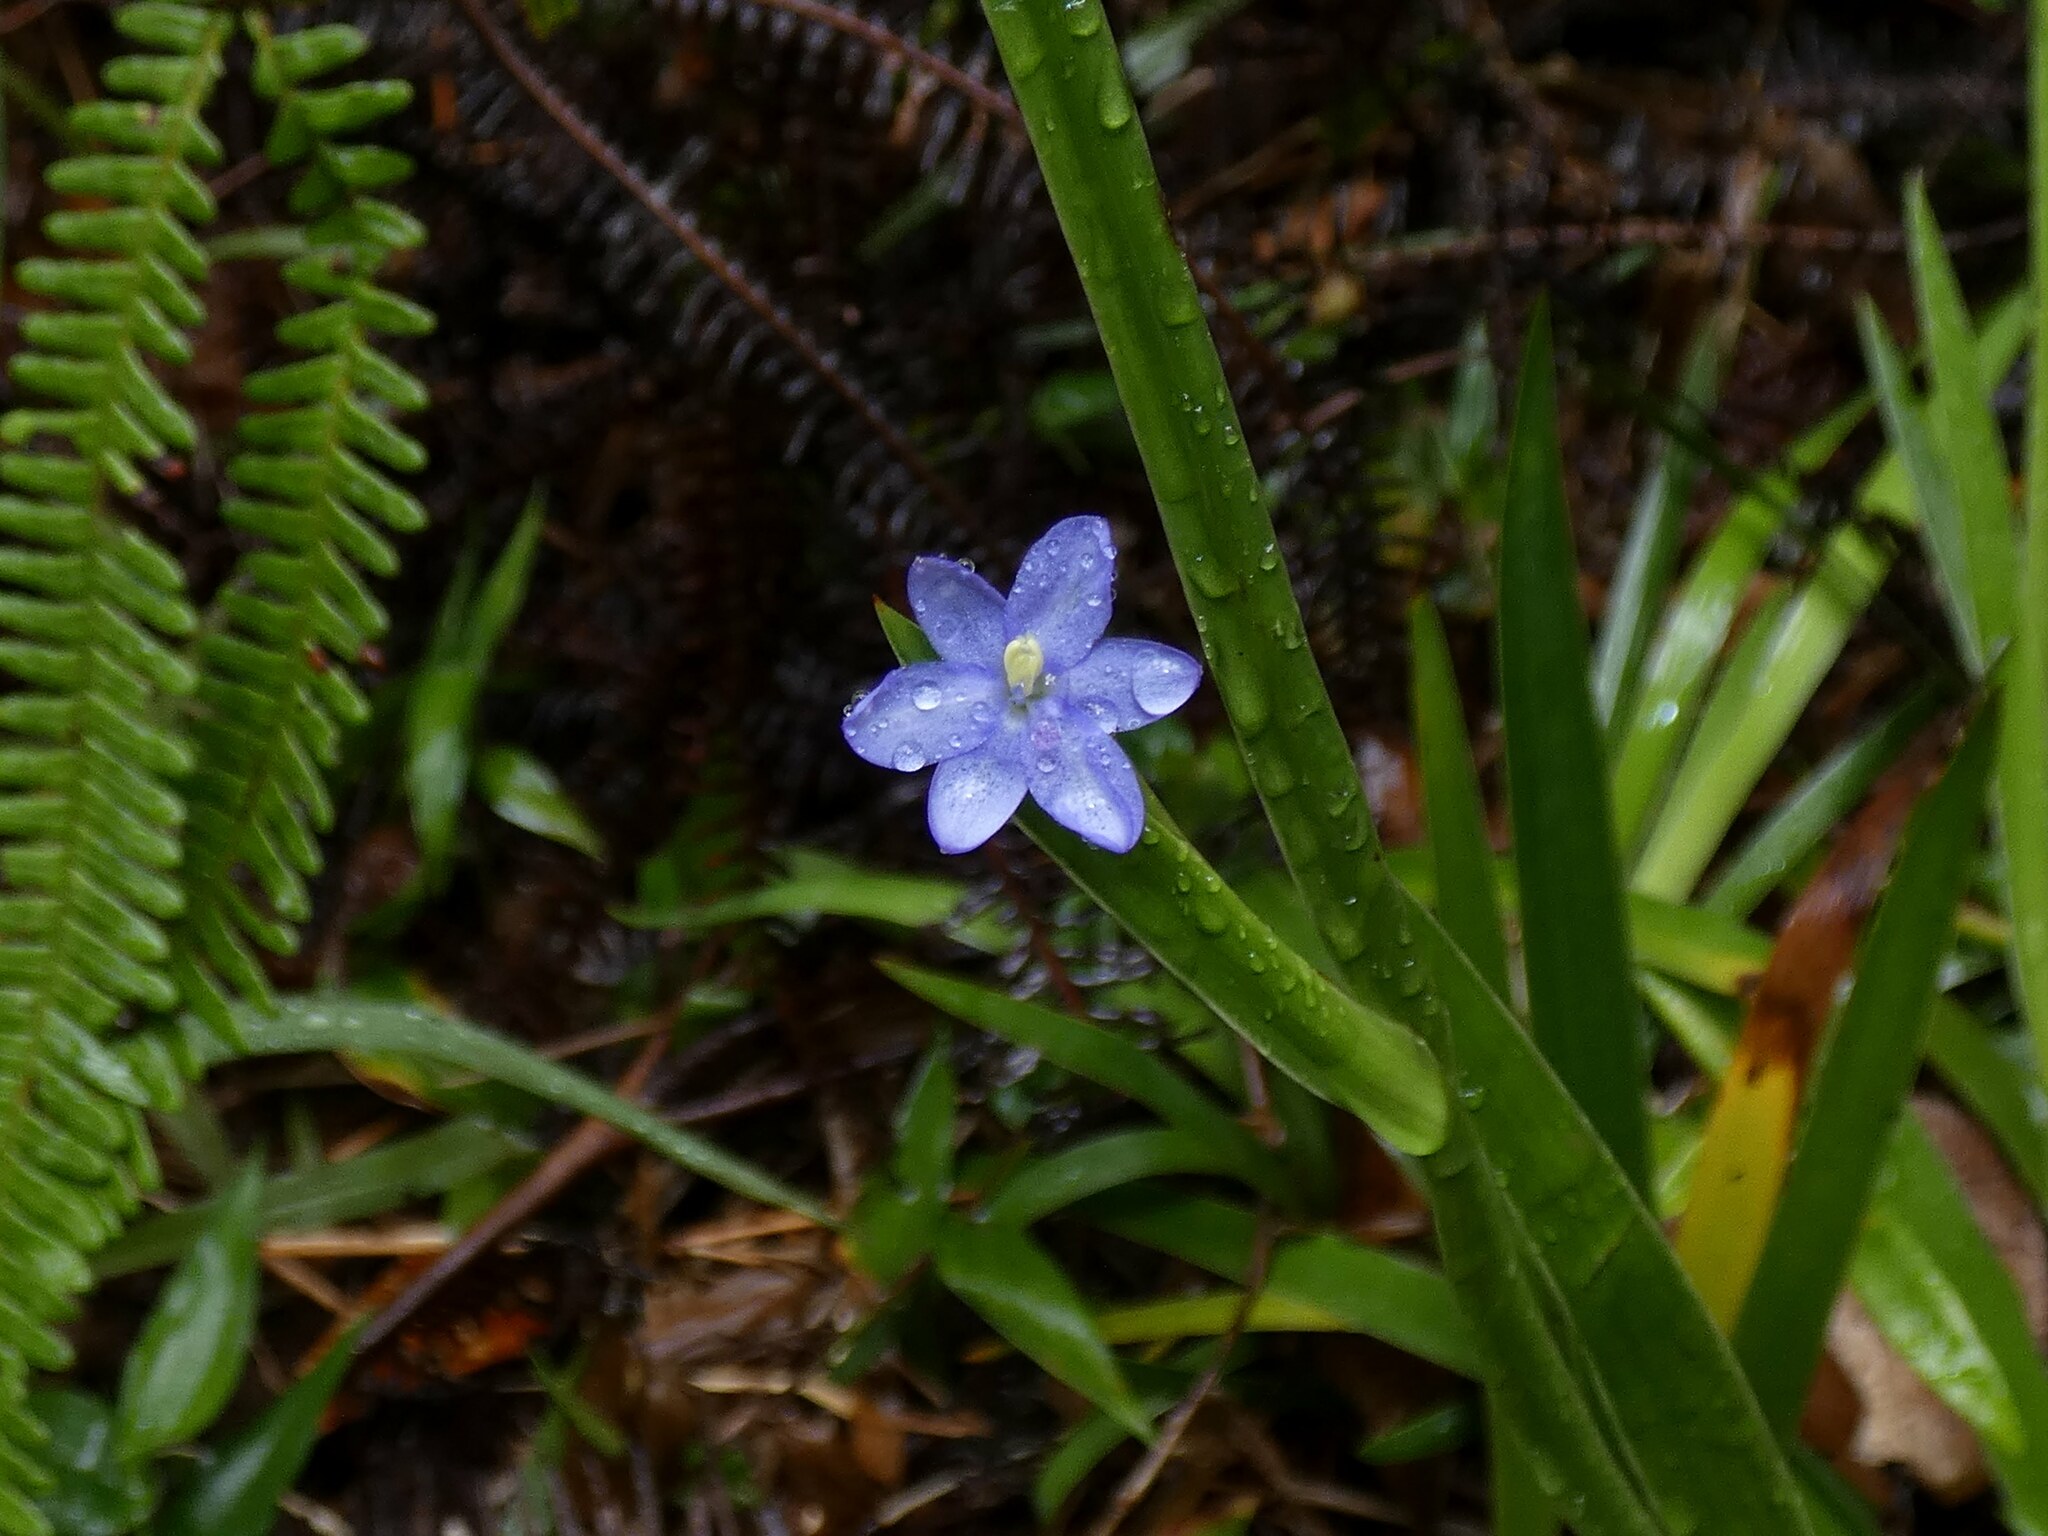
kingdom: Plantae
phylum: Tracheophyta
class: Liliopsida
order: Asparagales
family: Iridaceae
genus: Aristea
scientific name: Aristea ecklonii
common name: Blue corn-lily
